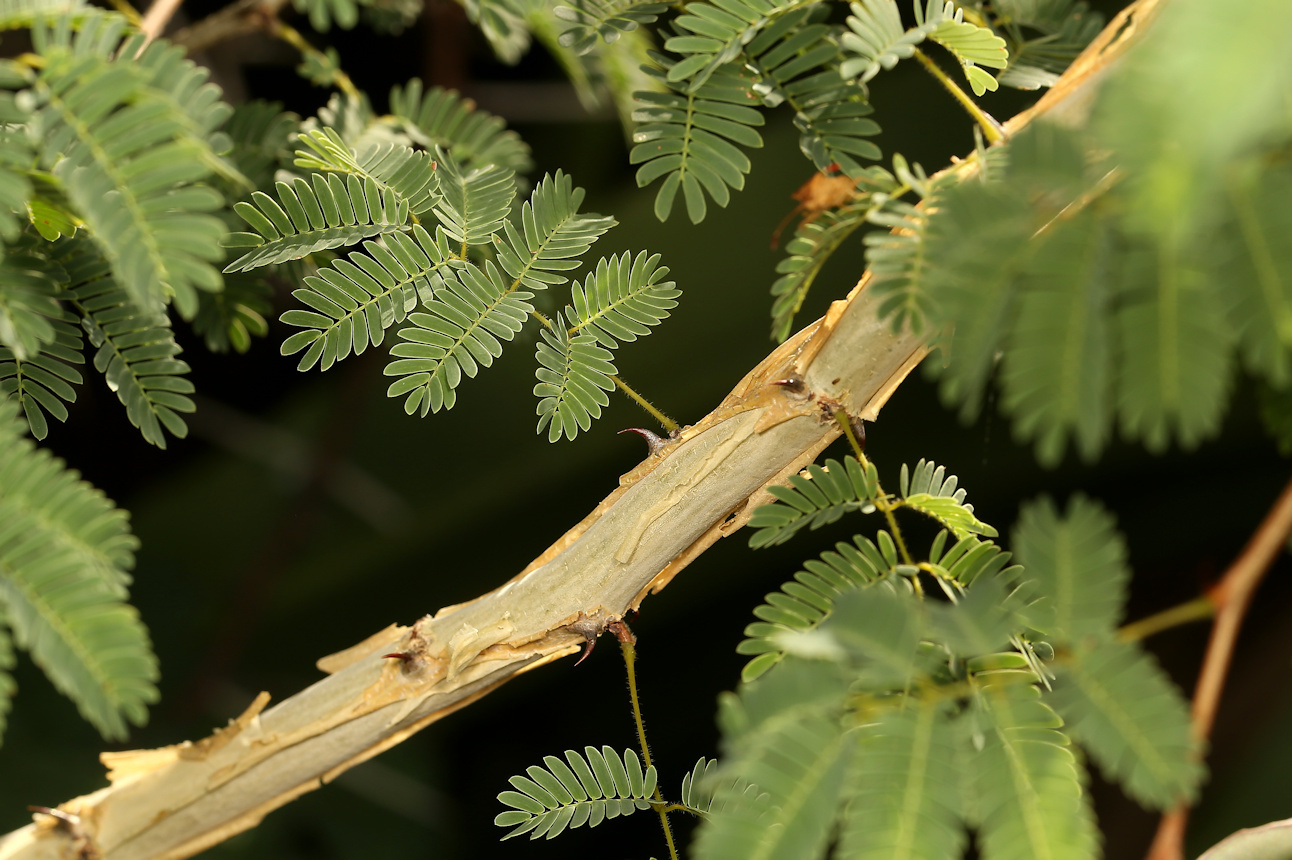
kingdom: Plantae
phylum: Tracheophyta
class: Magnoliopsida
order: Fabales
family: Fabaceae
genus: Senegalia
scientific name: Senegalia erubescens
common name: Bluethorn
